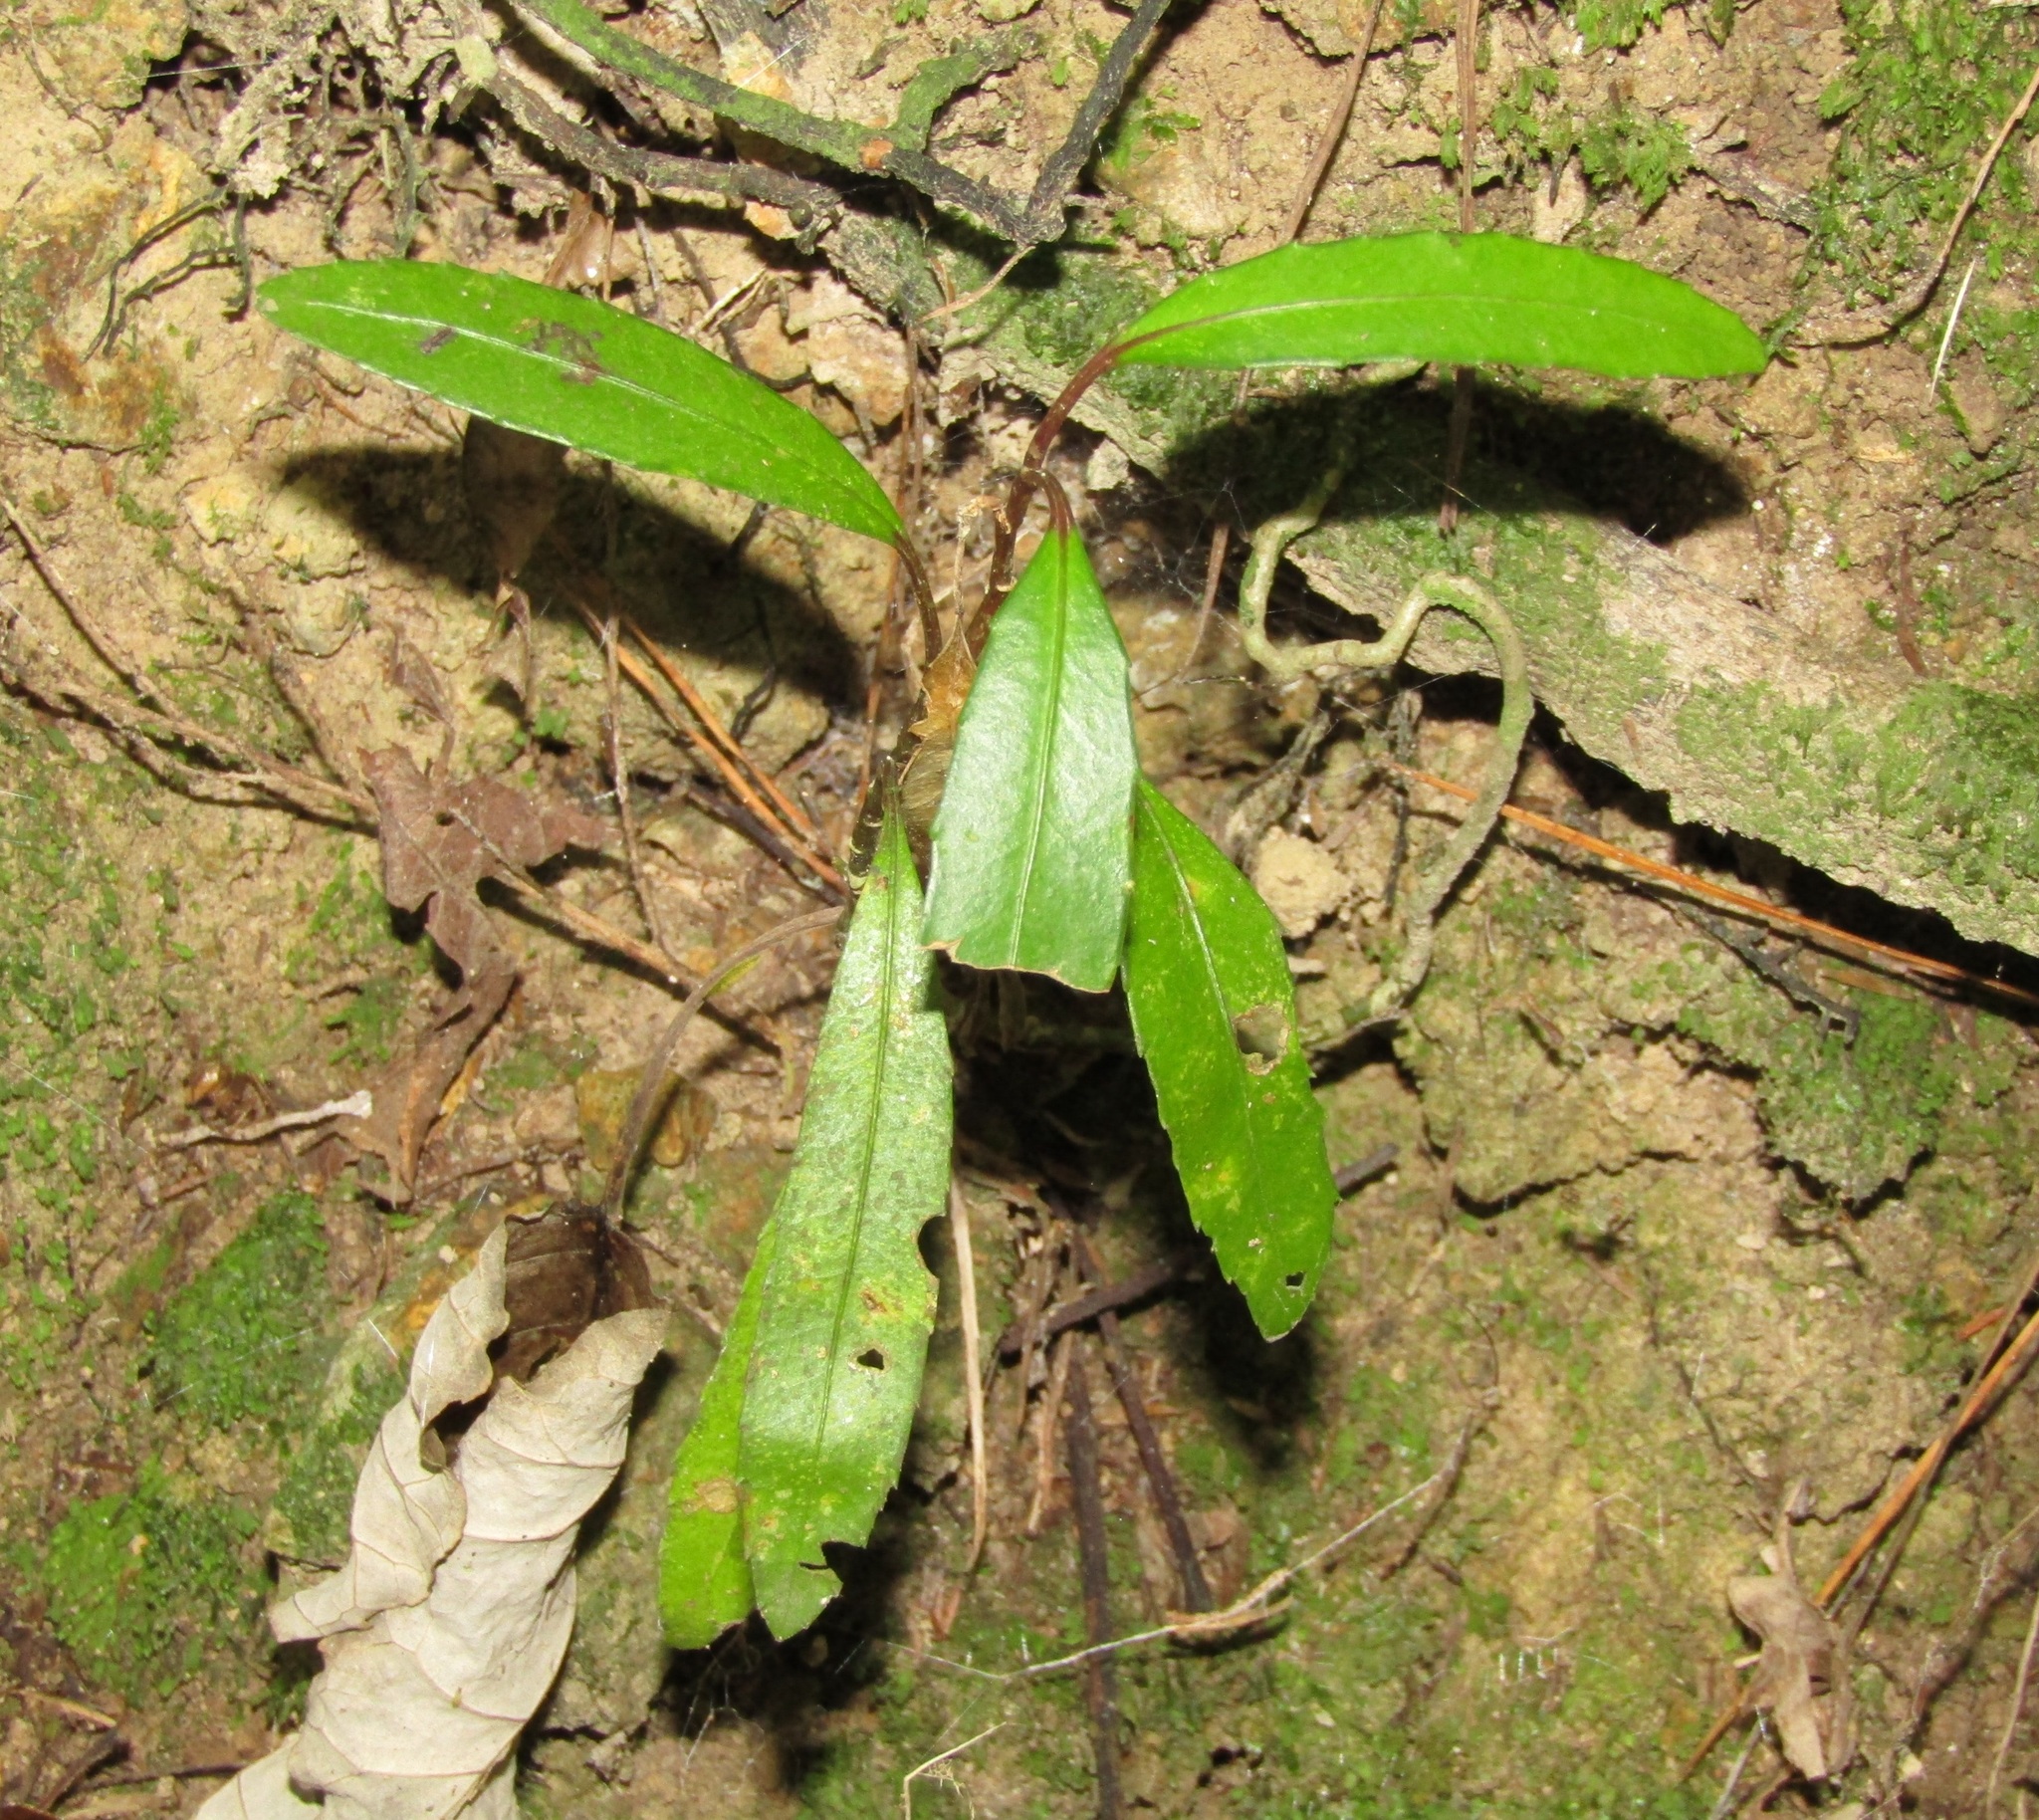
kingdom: Plantae
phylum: Tracheophyta
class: Magnoliopsida
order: Apiales
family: Araliaceae
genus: Pseudopanax
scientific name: Pseudopanax
